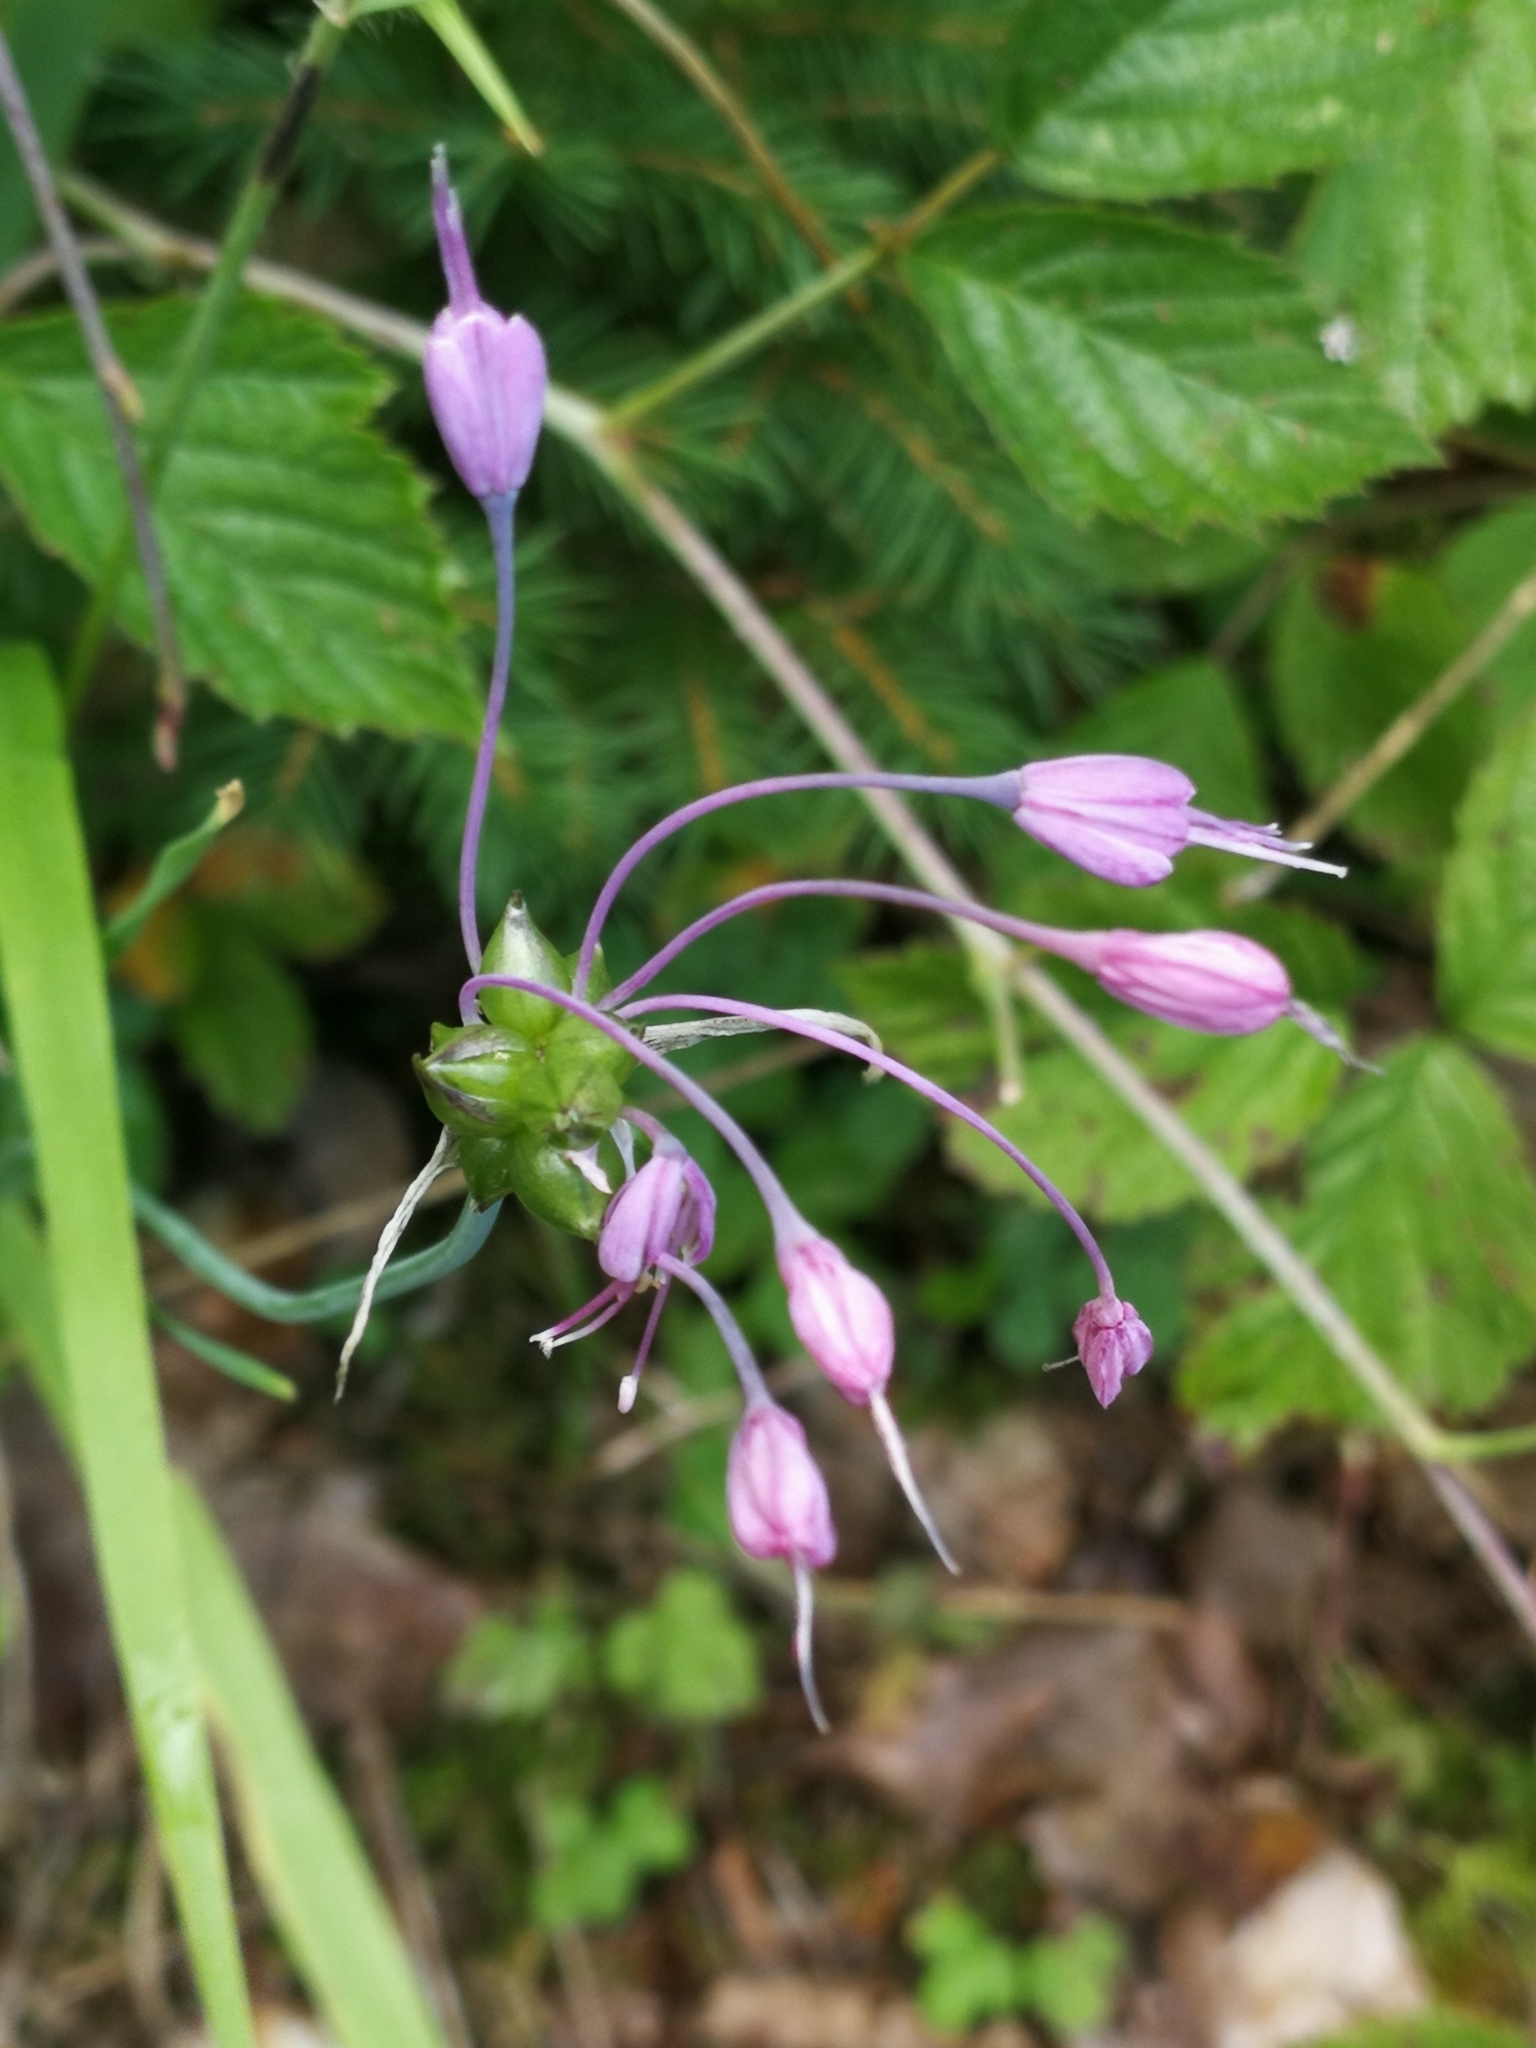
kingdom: Plantae
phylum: Tracheophyta
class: Liliopsida
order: Asparagales
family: Amaryllidaceae
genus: Allium
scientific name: Allium carinatum
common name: Keeled garlic
